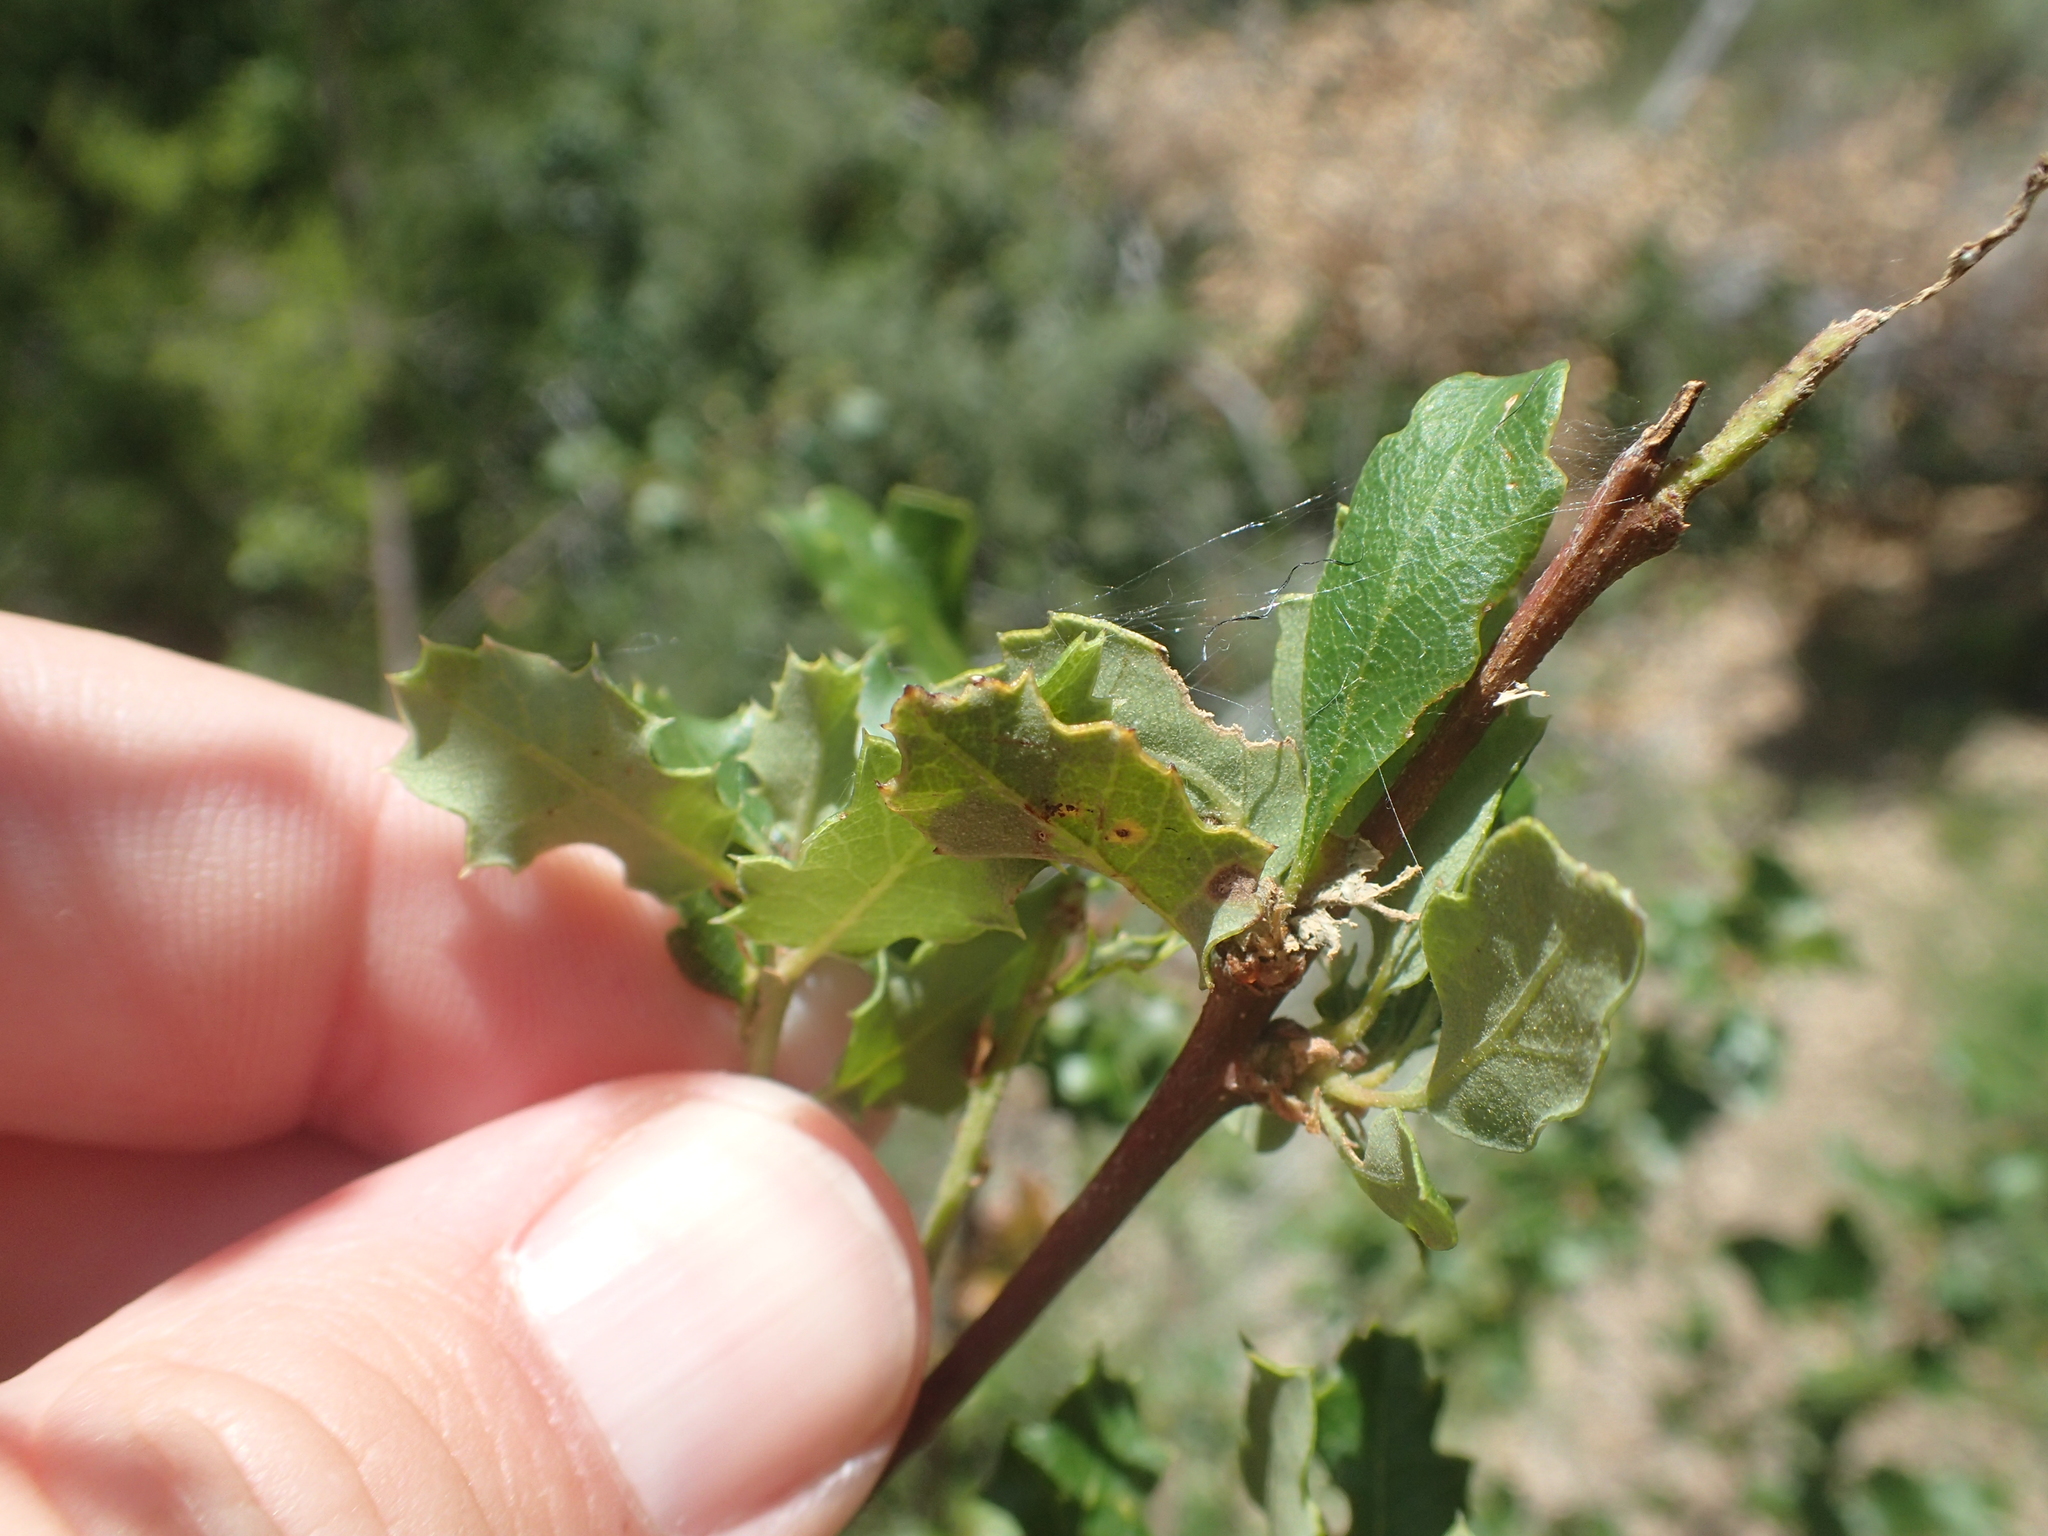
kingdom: Plantae
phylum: Tracheophyta
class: Magnoliopsida
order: Fagales
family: Fagaceae
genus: Quercus
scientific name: Quercus berberidifolia
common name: California scrub oak
